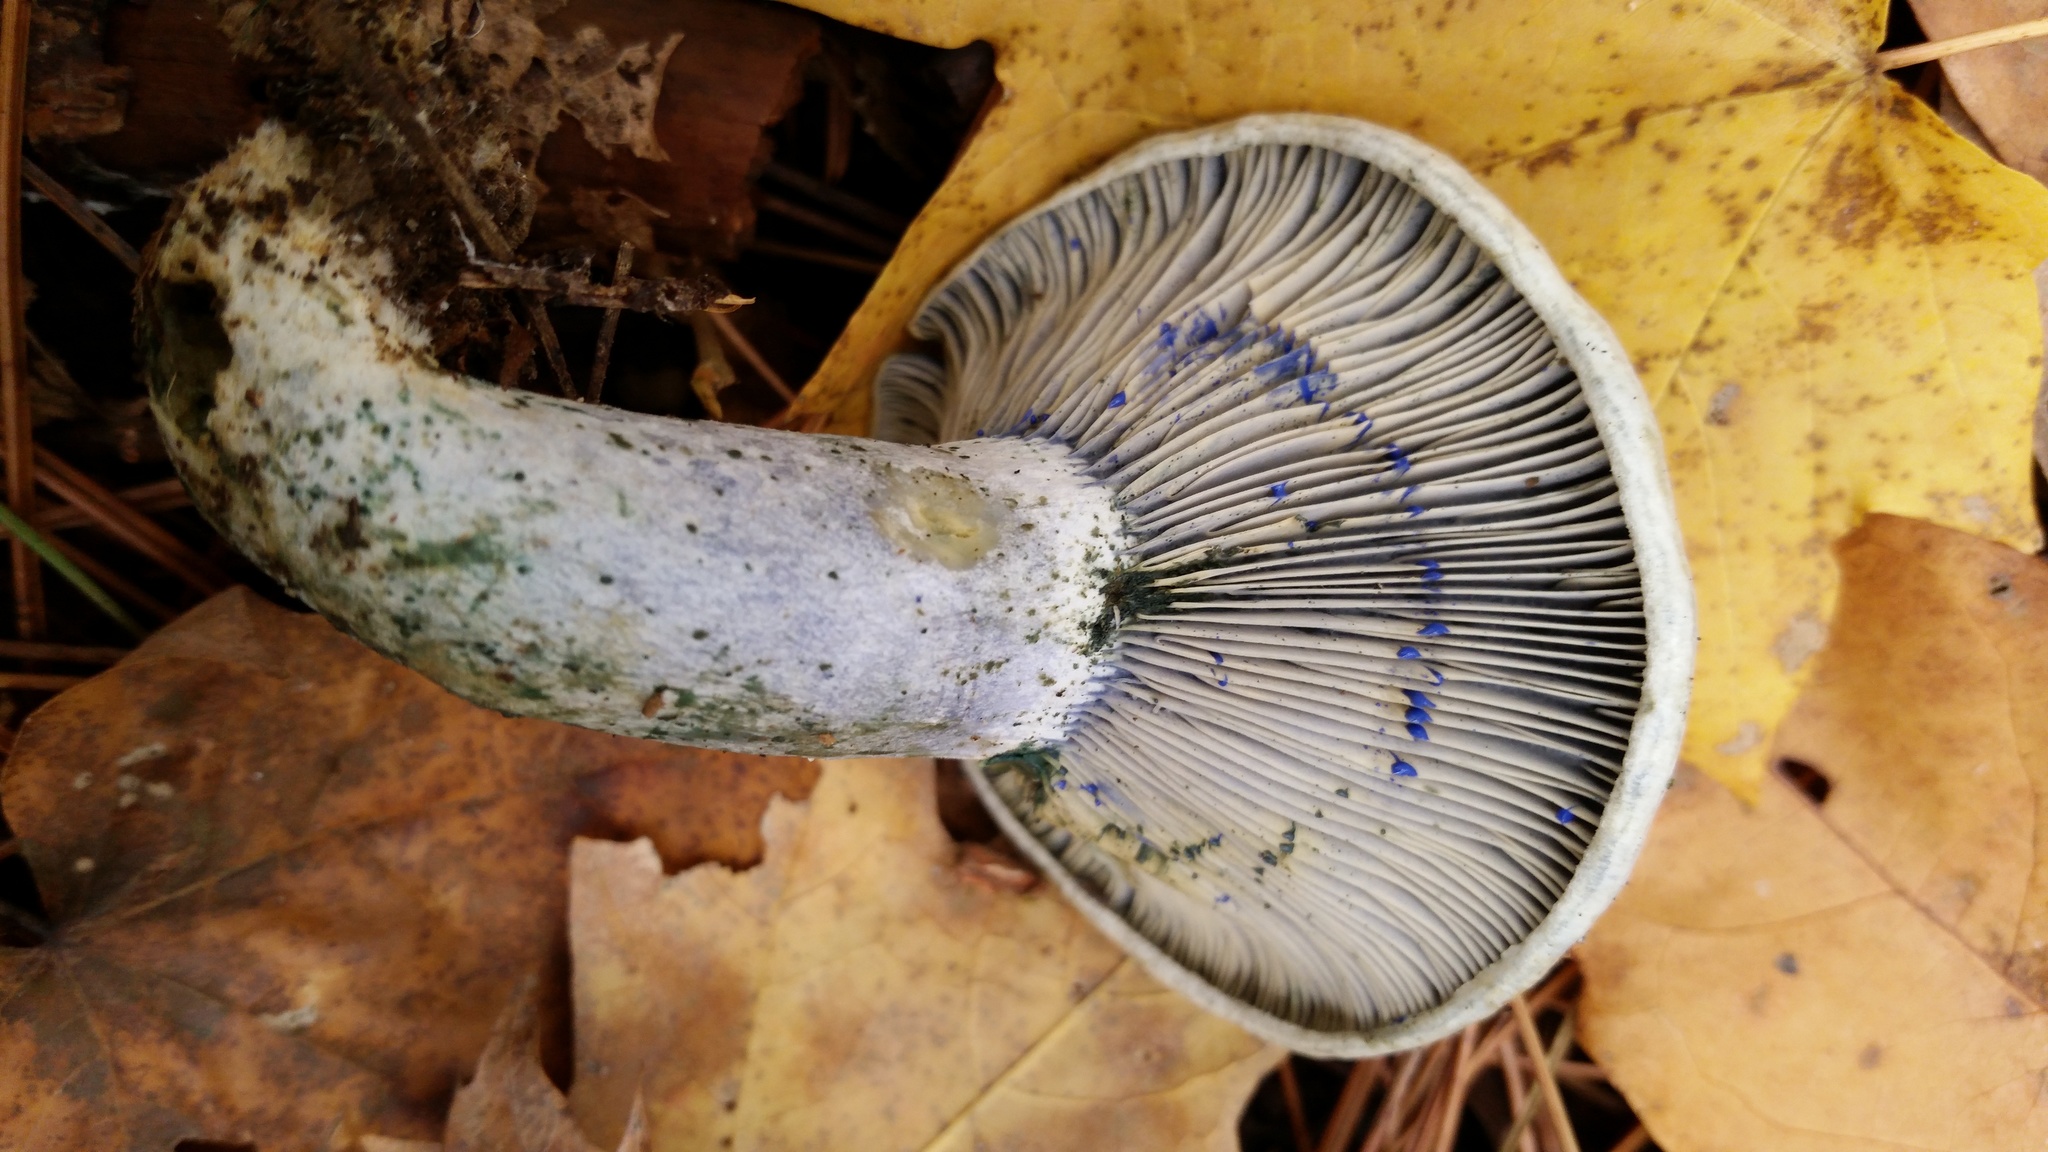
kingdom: Fungi
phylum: Basidiomycota
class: Agaricomycetes
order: Russulales
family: Russulaceae
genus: Lactarius
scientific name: Lactarius indigo
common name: Indigo milk cap
